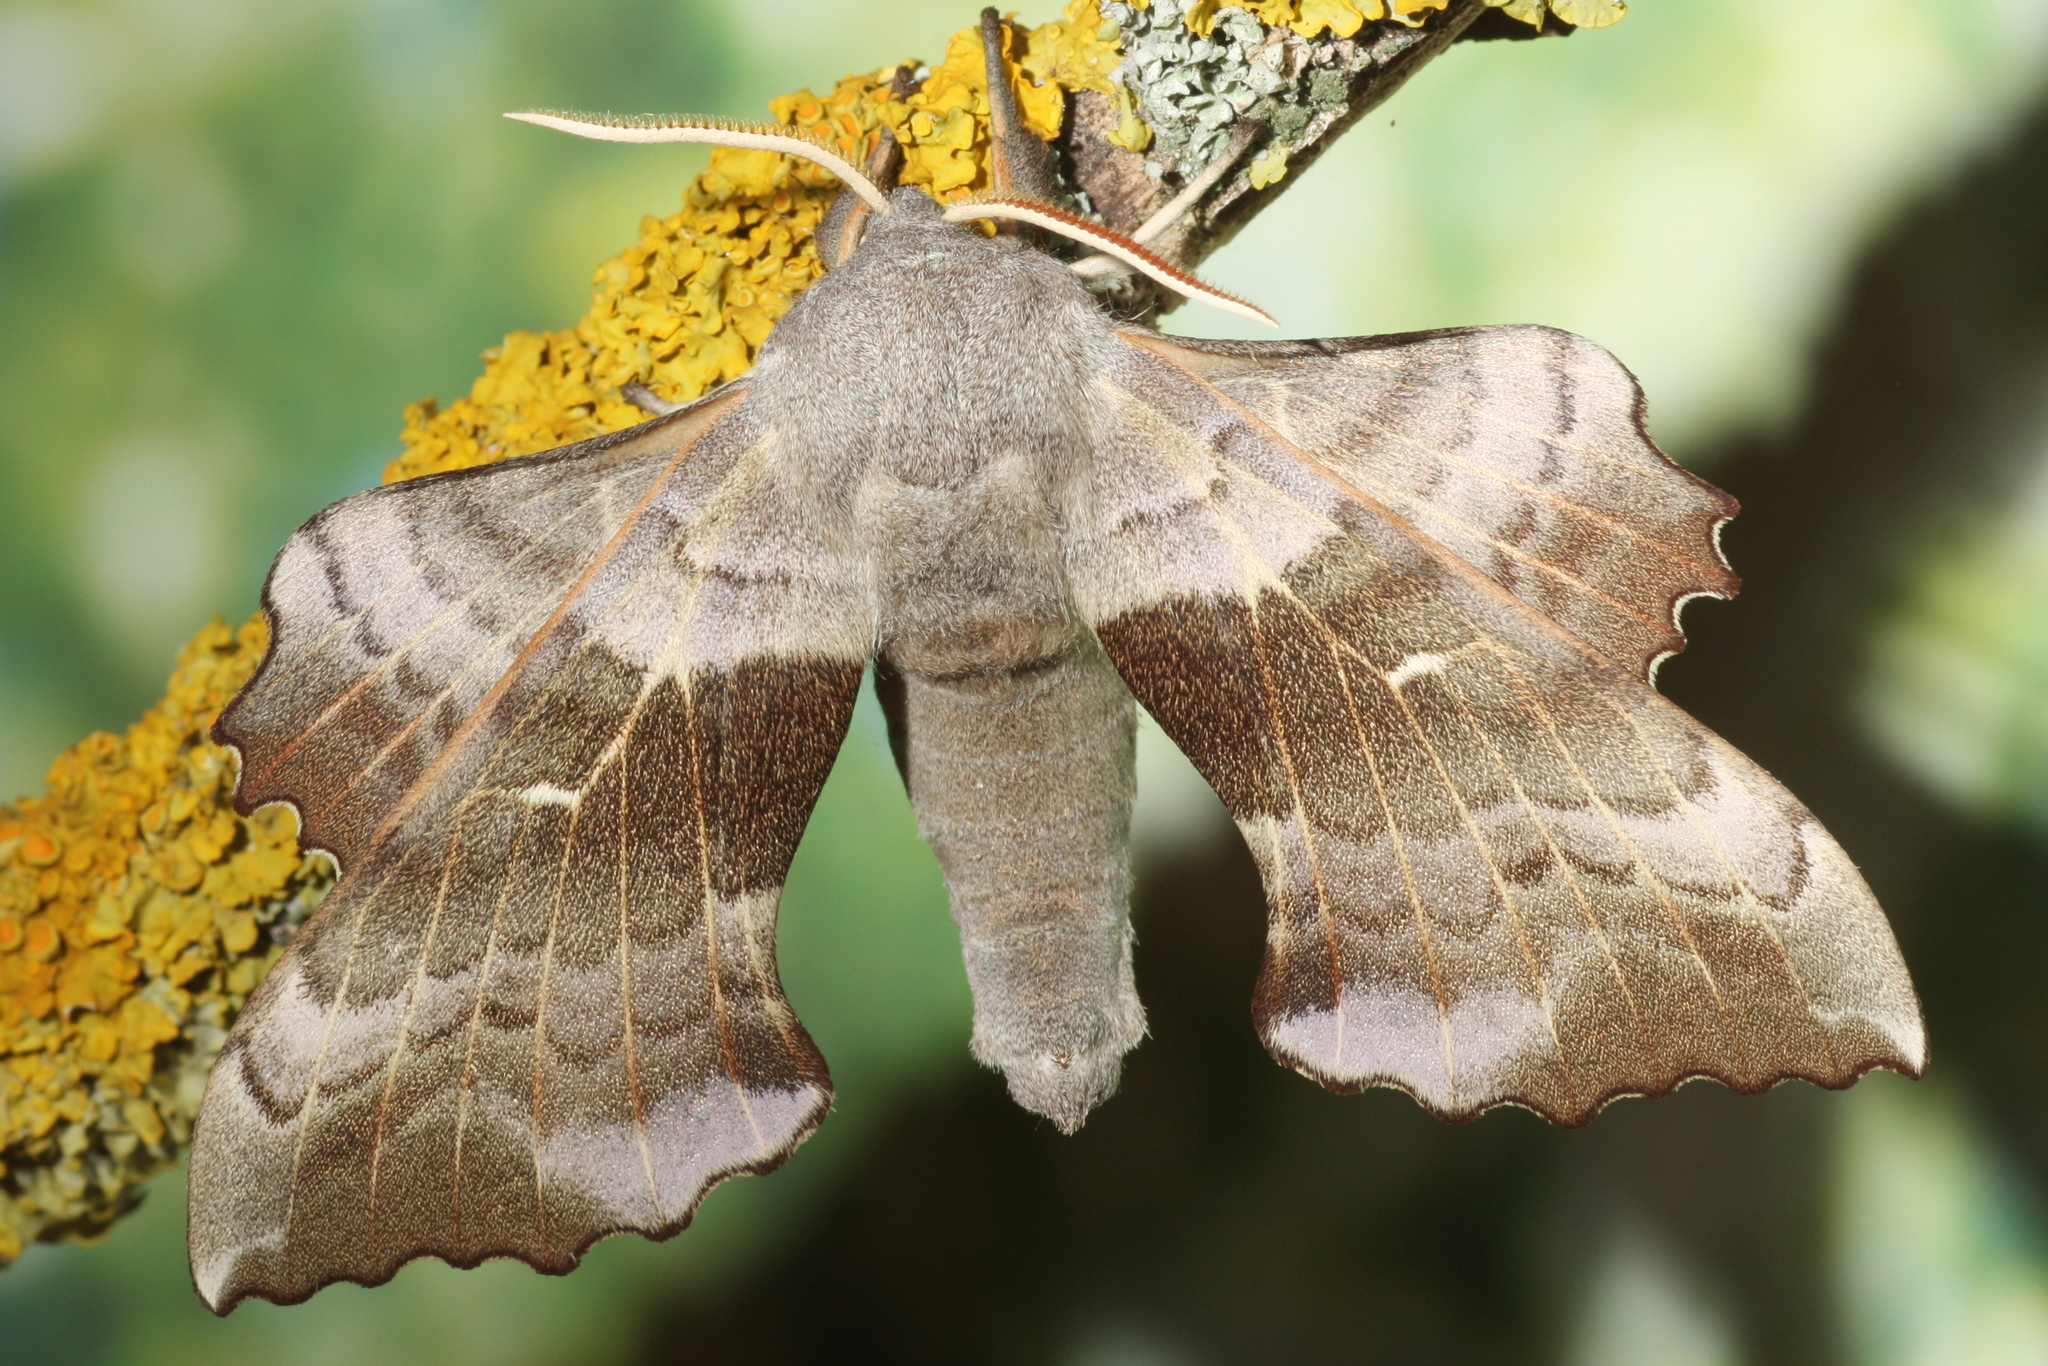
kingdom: Animalia
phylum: Arthropoda
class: Insecta
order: Lepidoptera
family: Sphingidae
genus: Laothoe
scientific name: Laothoe populi
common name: Poplar hawk-moth
